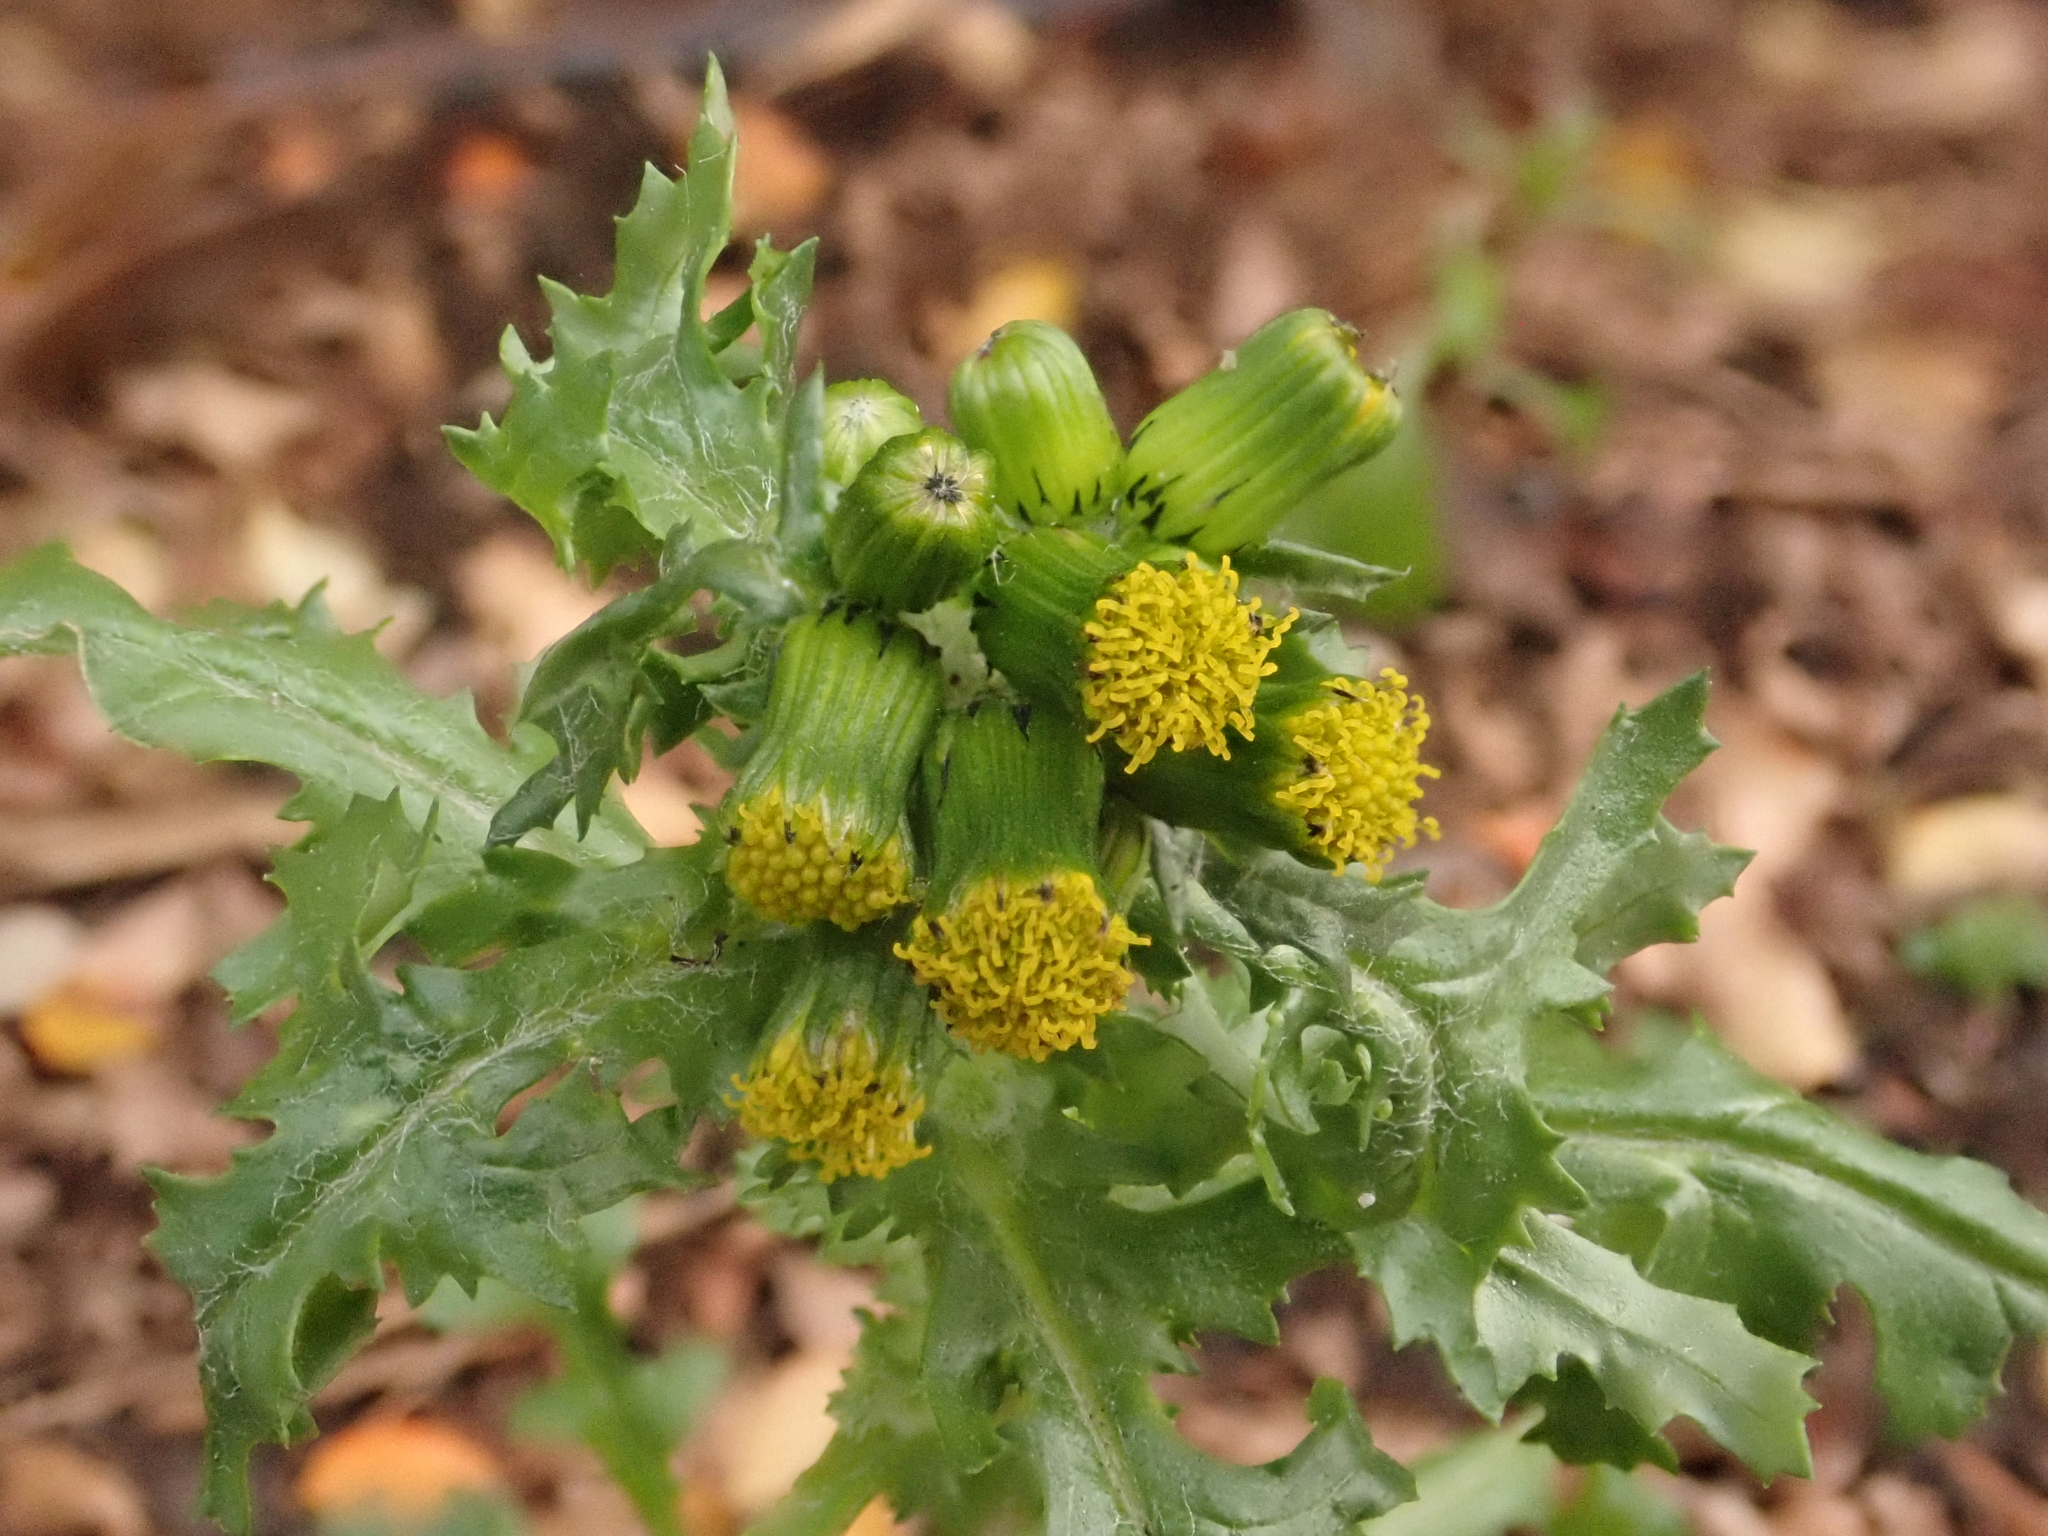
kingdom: Plantae
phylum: Tracheophyta
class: Magnoliopsida
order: Asterales
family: Asteraceae
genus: Senecio
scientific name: Senecio vulgaris
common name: Old-man-in-the-spring
